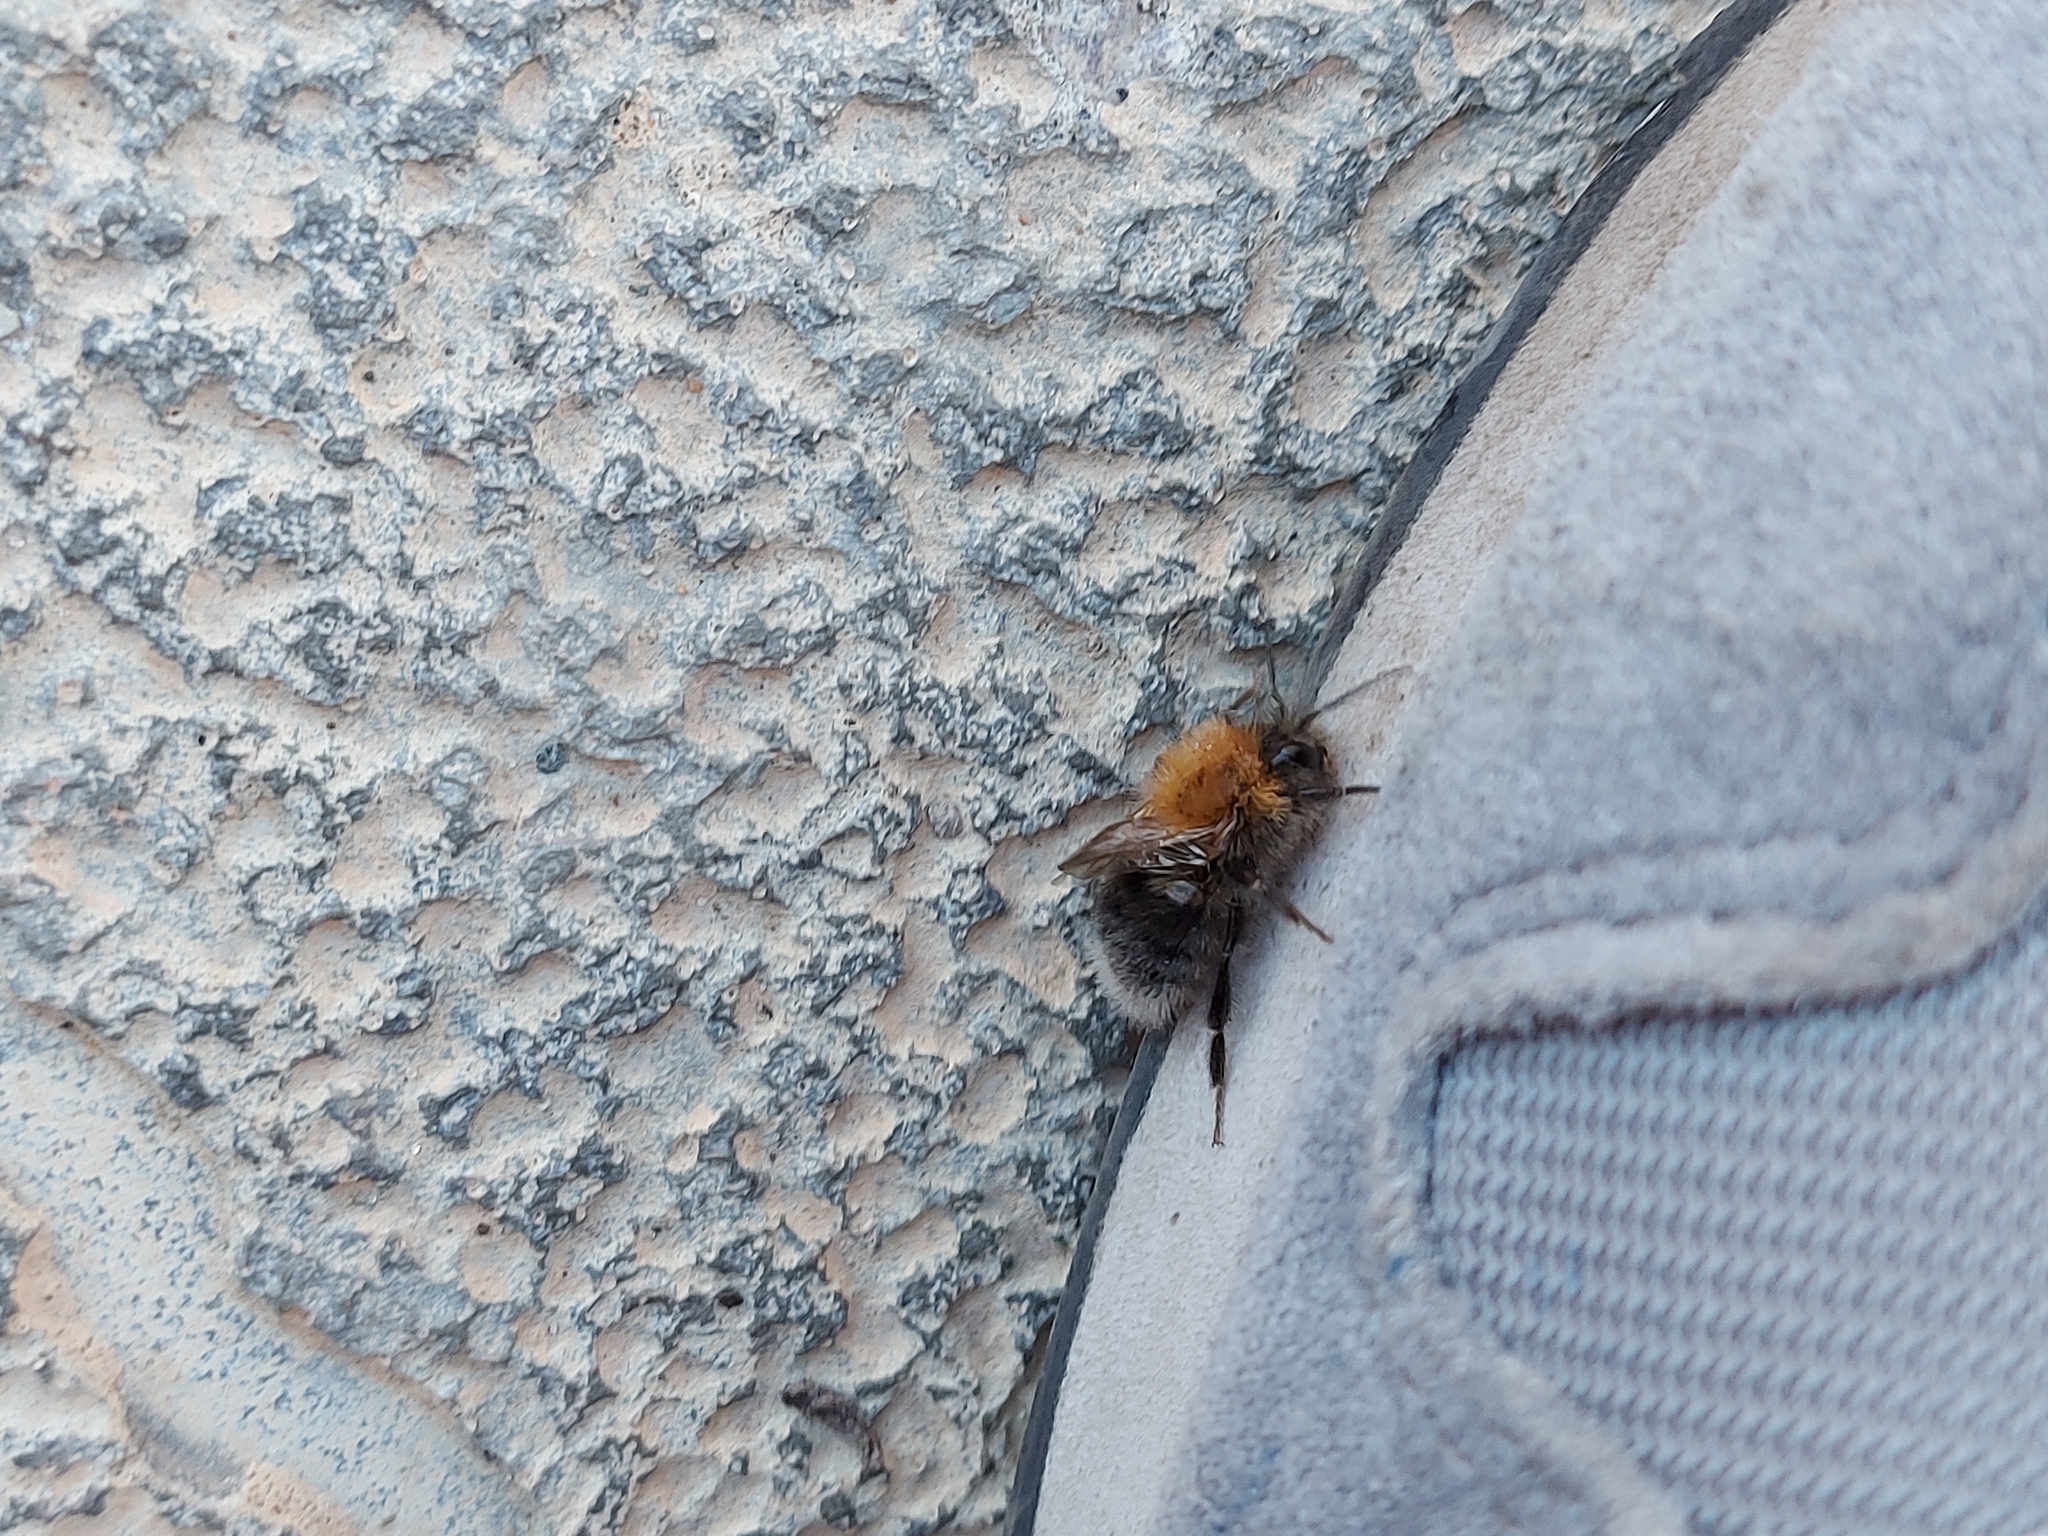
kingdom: Animalia
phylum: Arthropoda
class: Insecta
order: Hymenoptera
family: Apidae
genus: Bombus
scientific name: Bombus hypnorum
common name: New garden bumblebee
